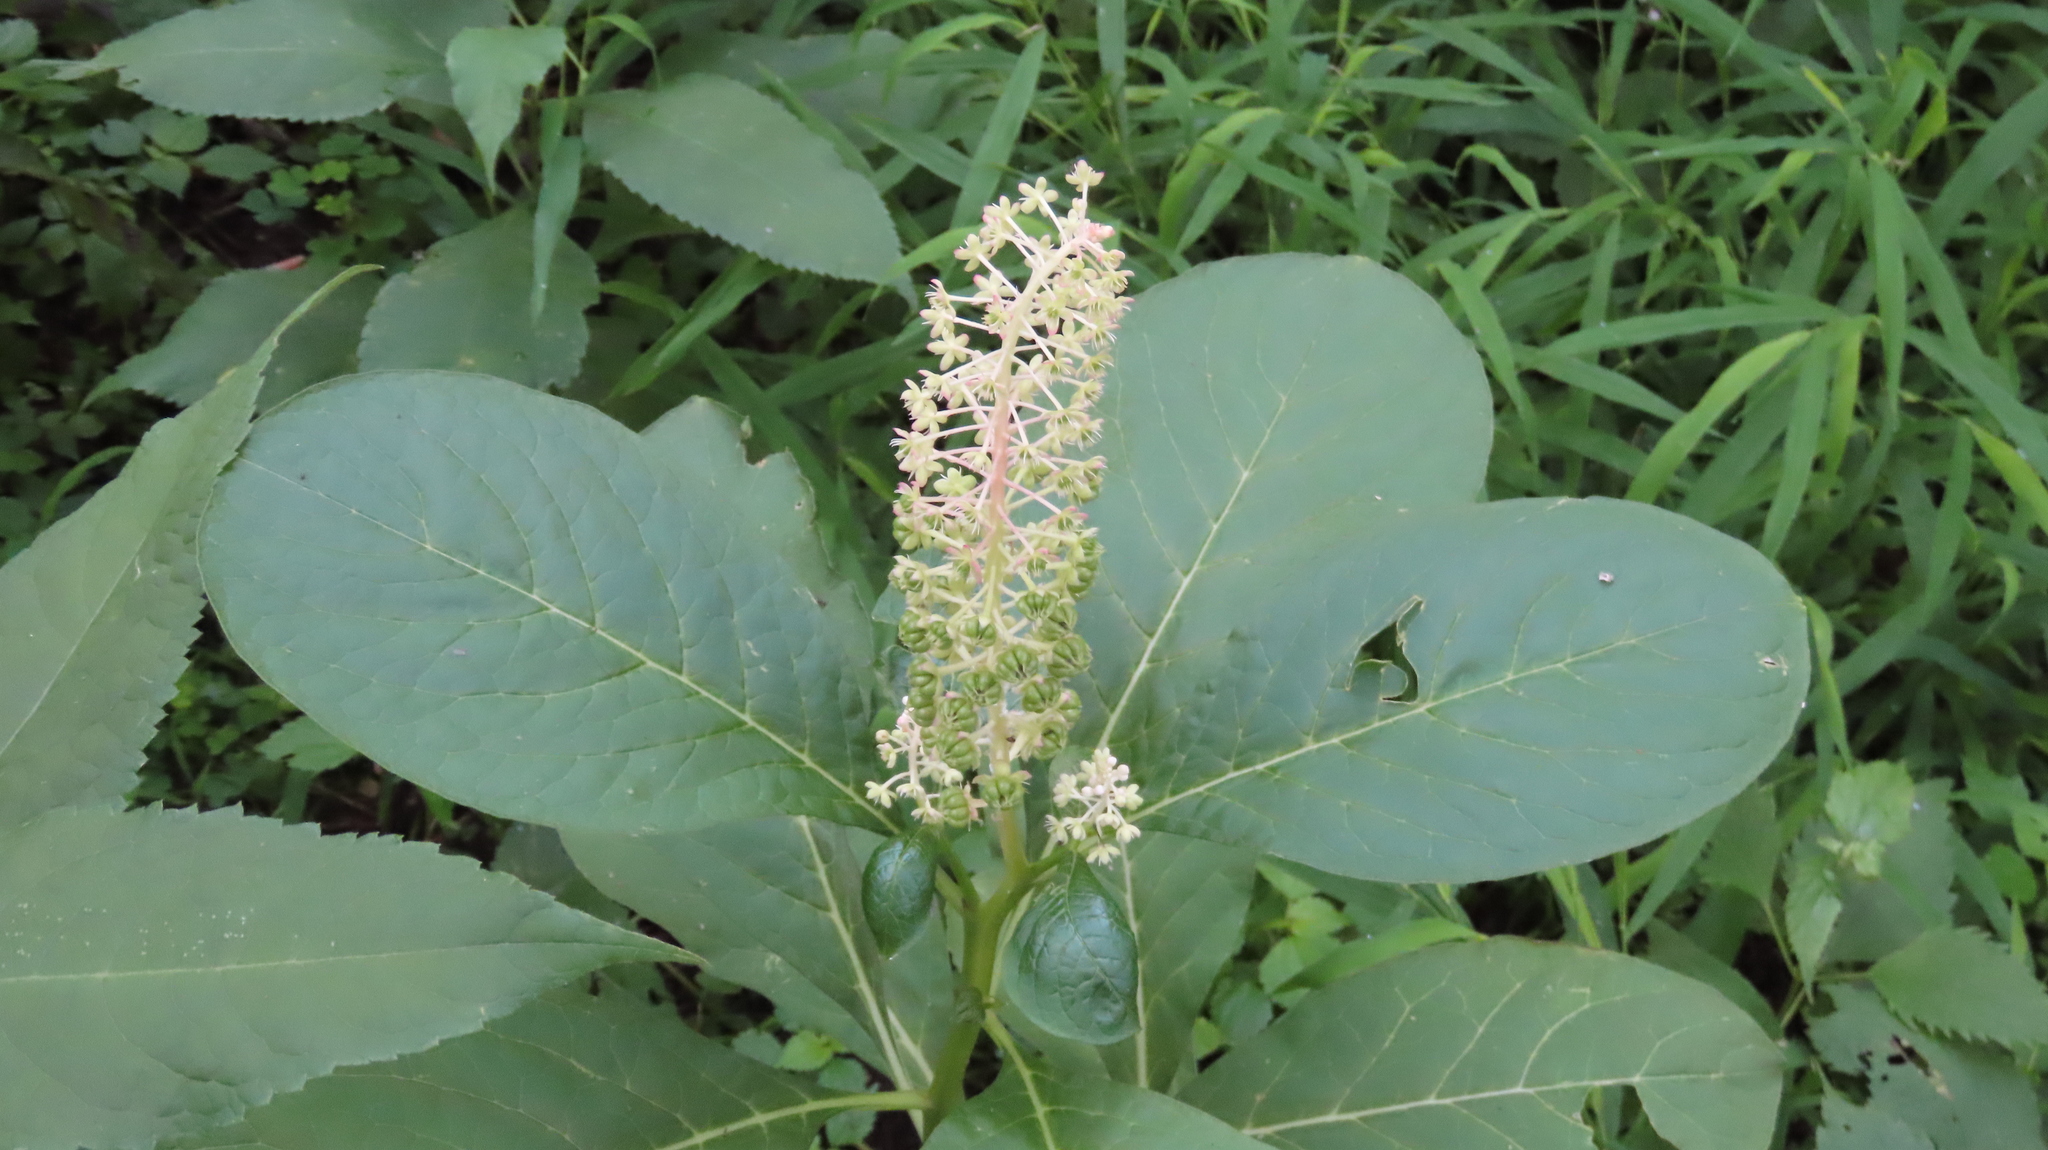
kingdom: Plantae
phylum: Tracheophyta
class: Magnoliopsida
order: Caryophyllales
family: Phytolaccaceae
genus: Phytolacca
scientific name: Phytolacca acinosa
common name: Indian pokeweed
